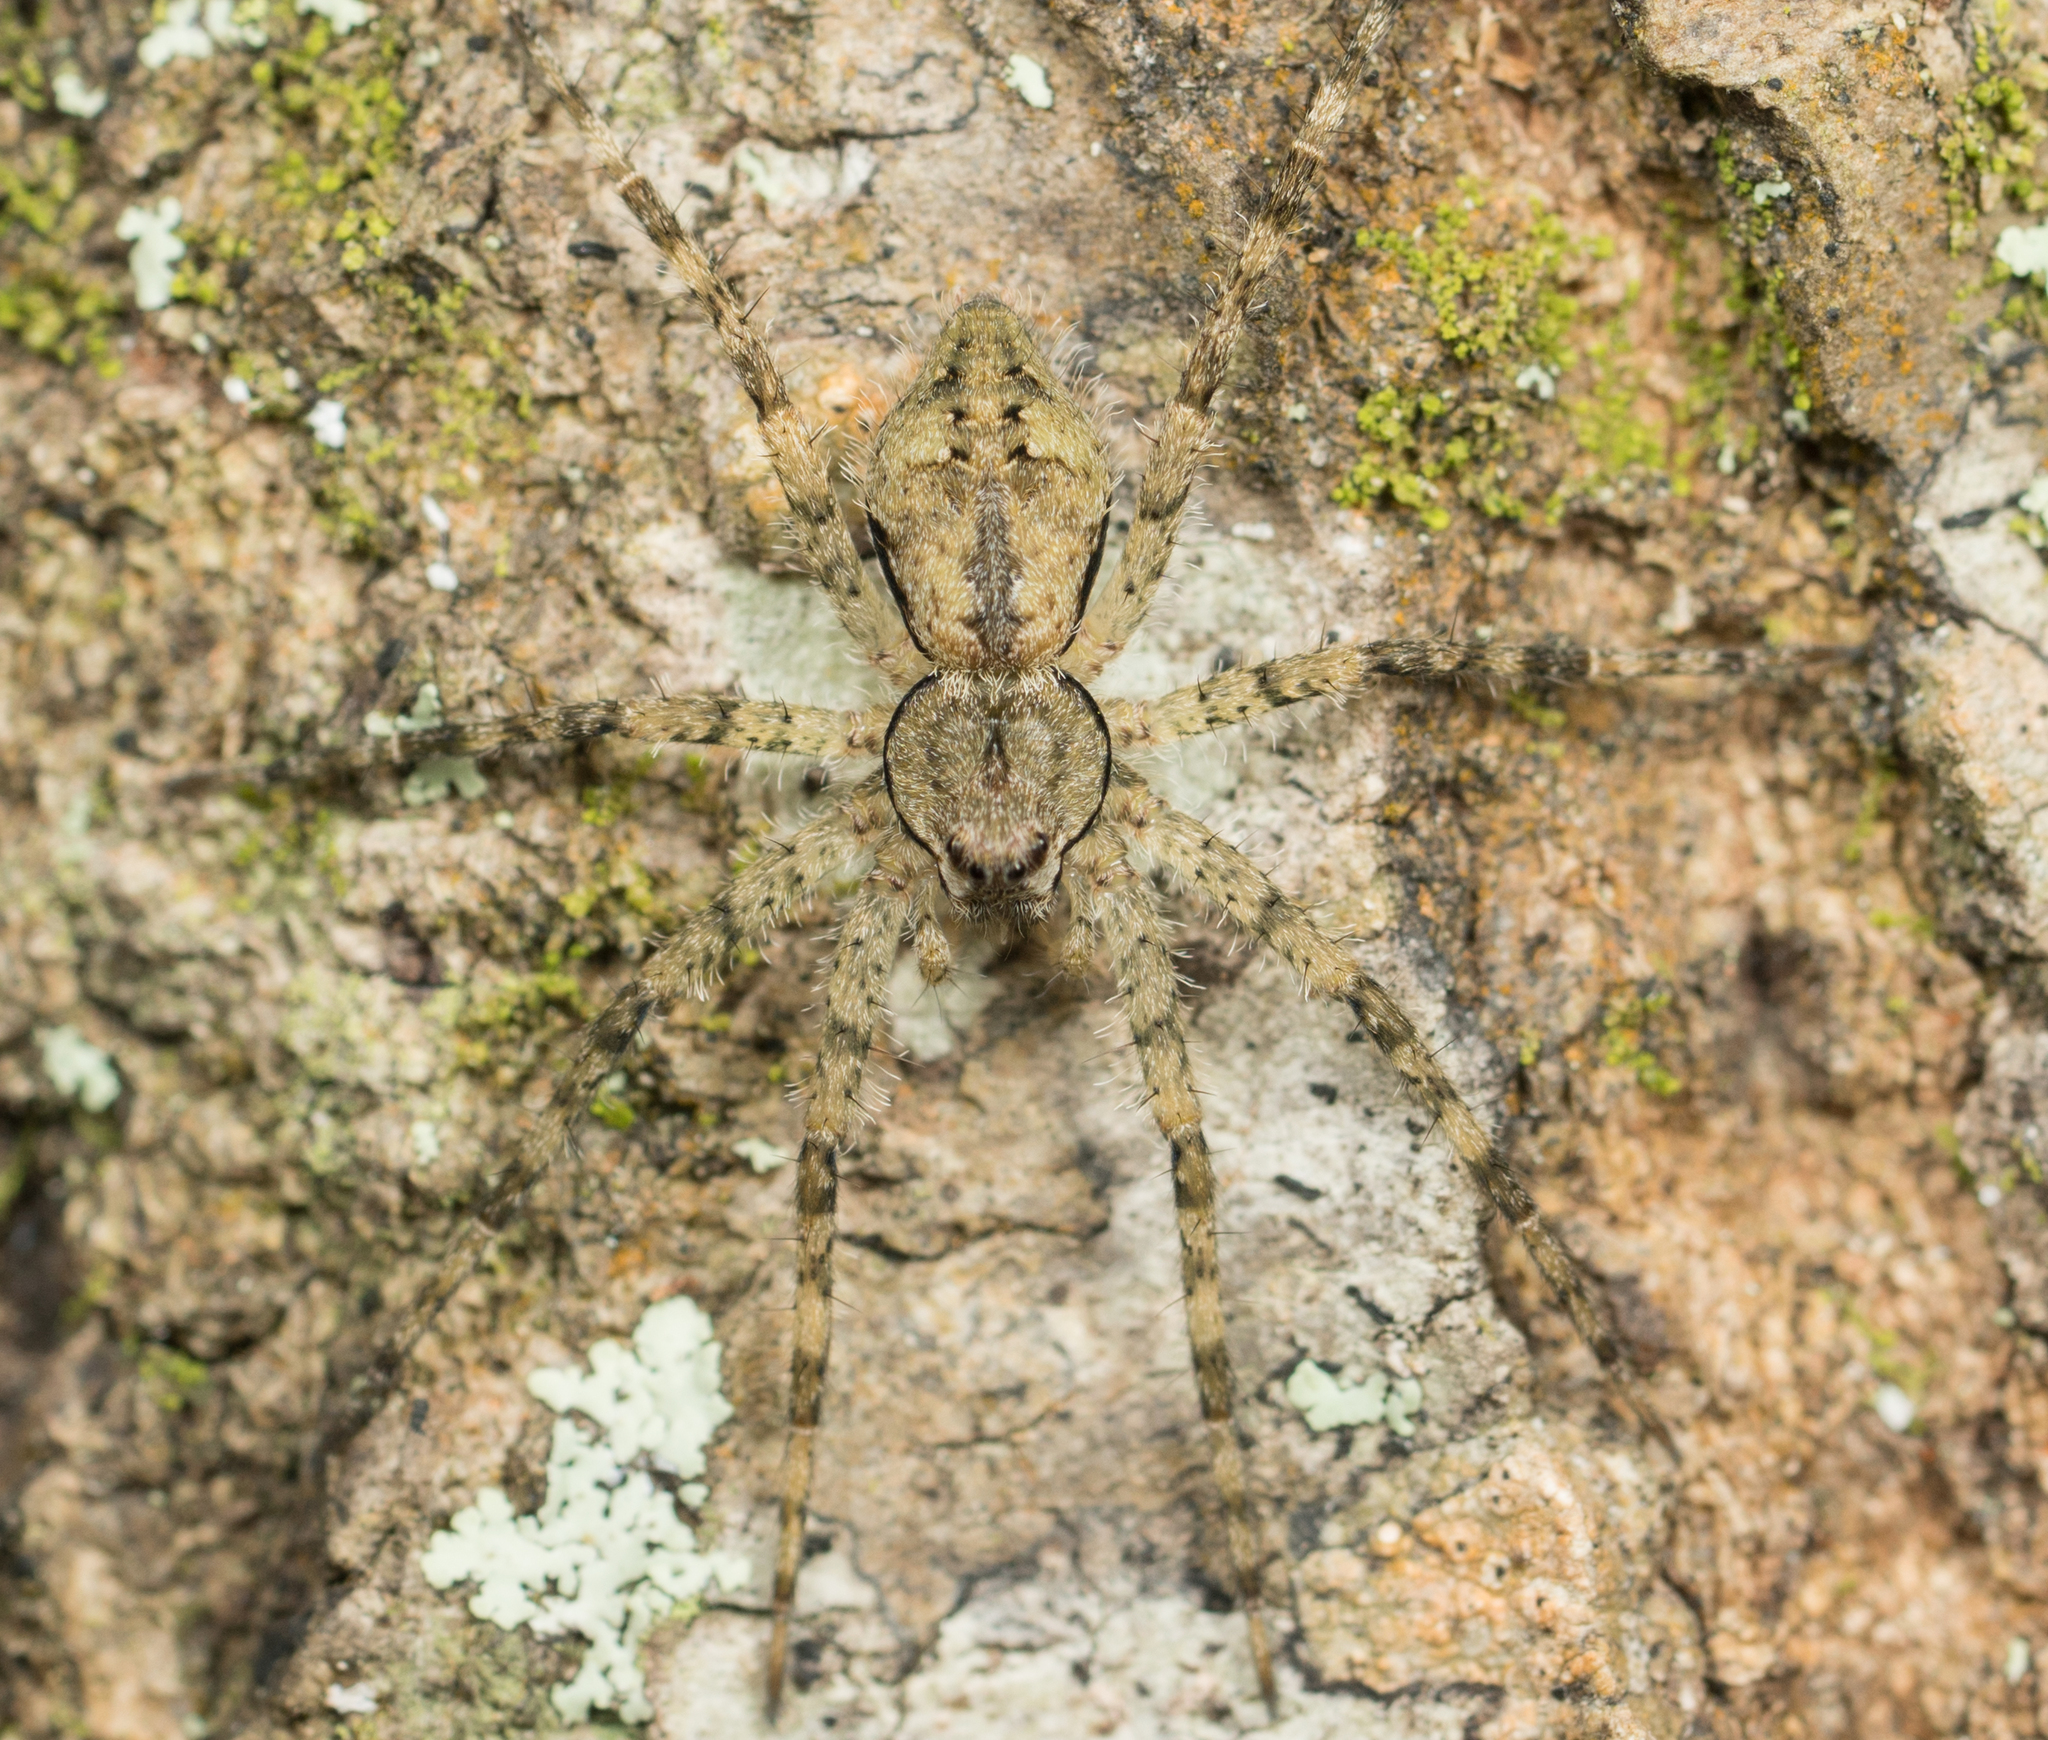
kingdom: Animalia
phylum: Arthropoda
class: Arachnida
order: Araneae
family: Pisauridae
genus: Dolomedes
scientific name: Dolomedes albineus
